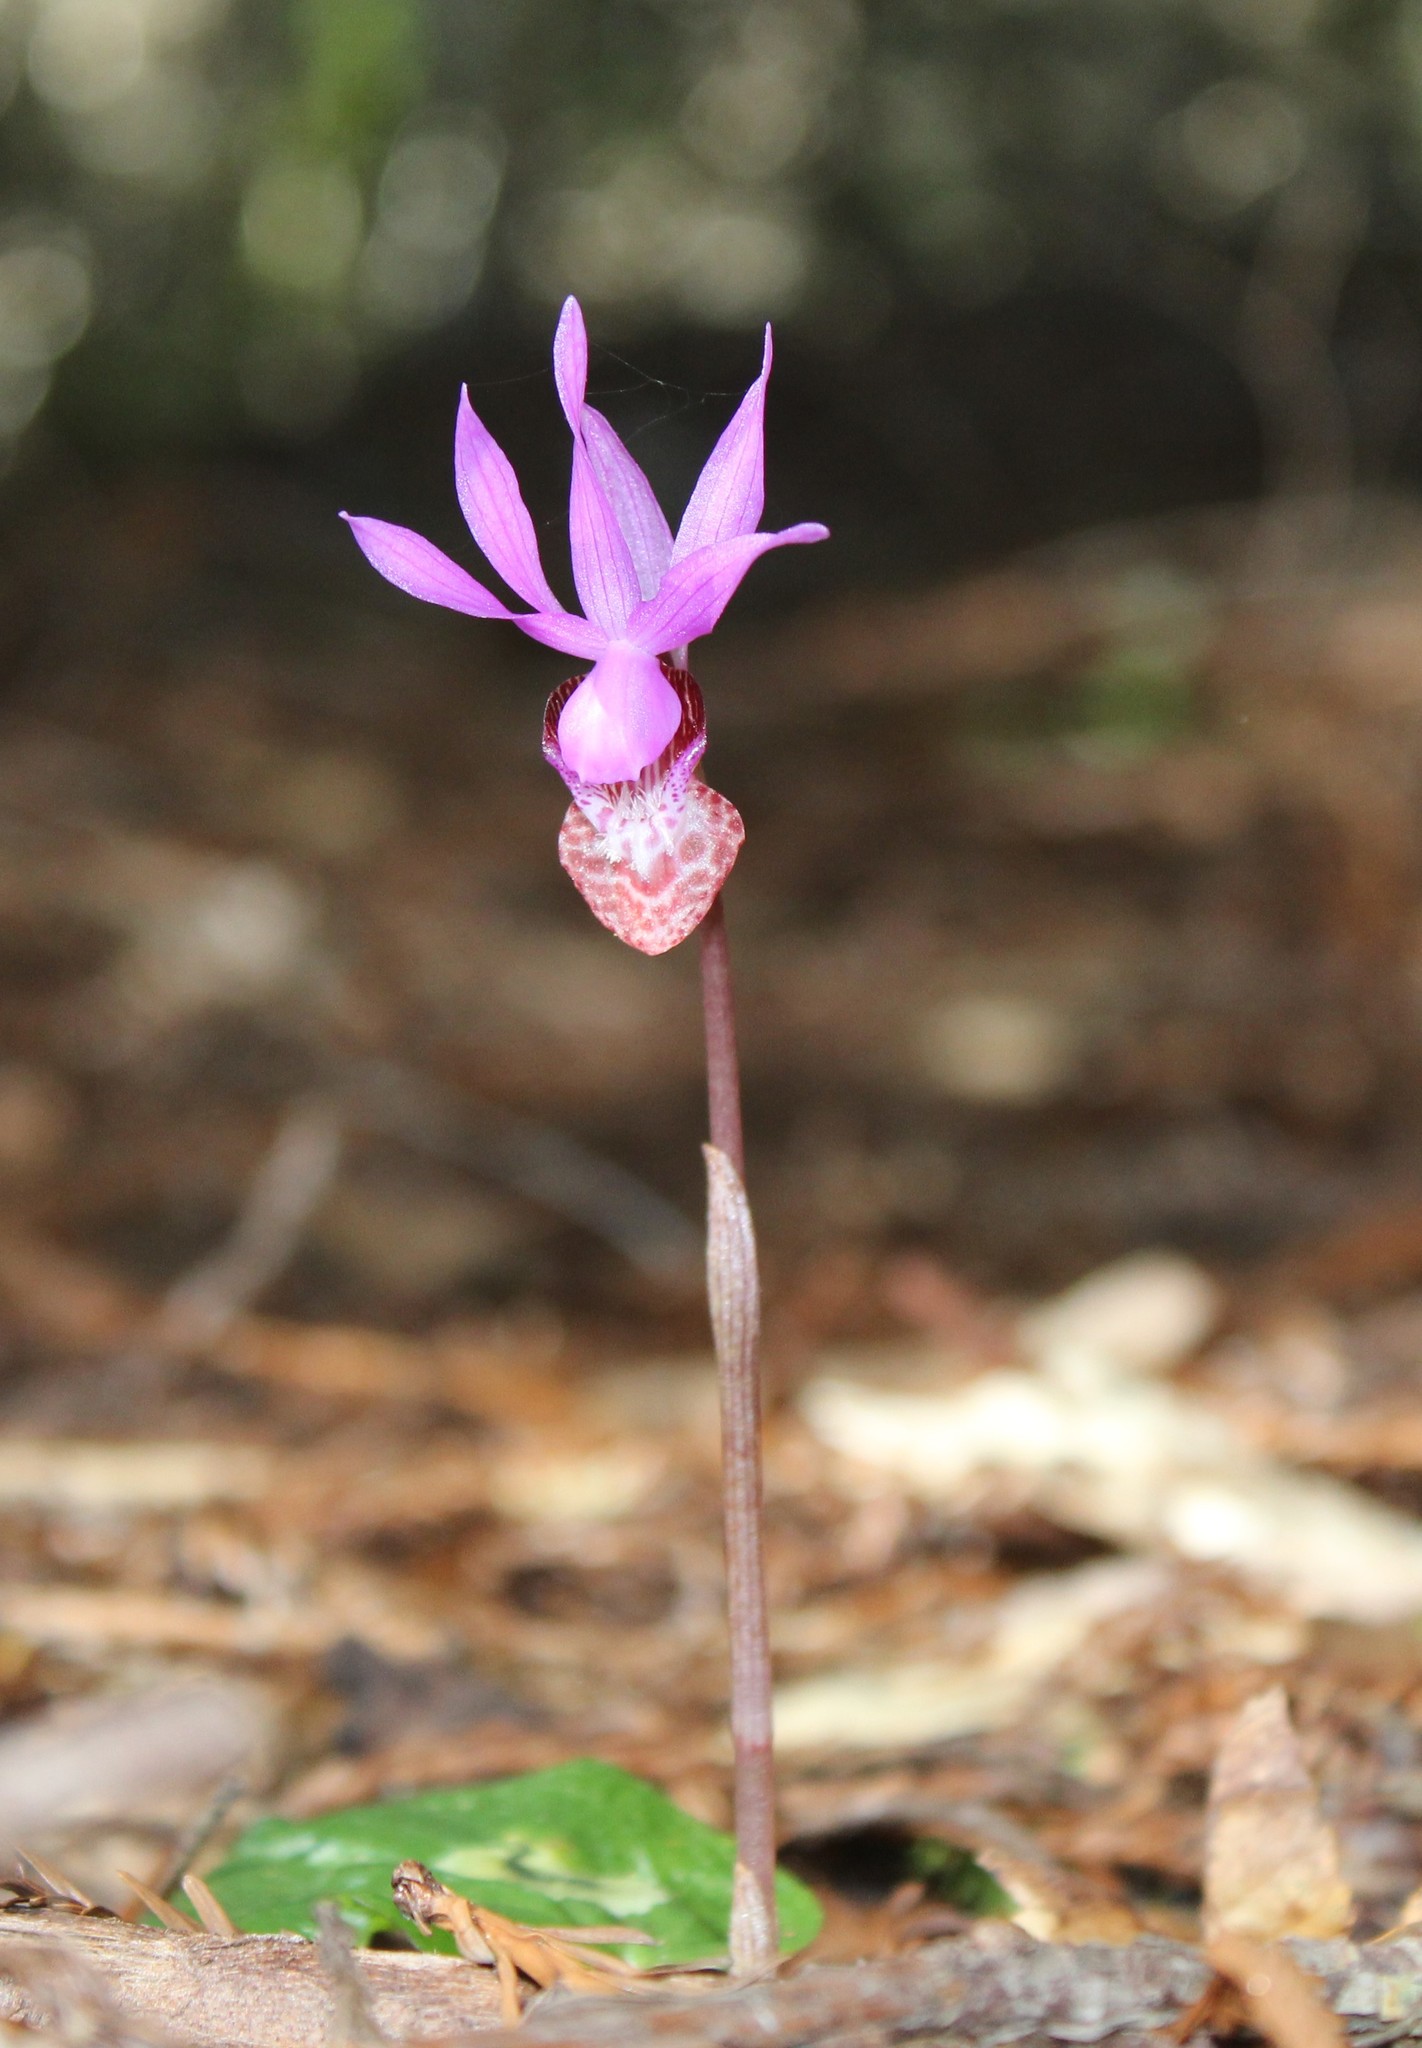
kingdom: Plantae
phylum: Tracheophyta
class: Liliopsida
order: Asparagales
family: Orchidaceae
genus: Calypso
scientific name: Calypso bulbosa
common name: Calypso
